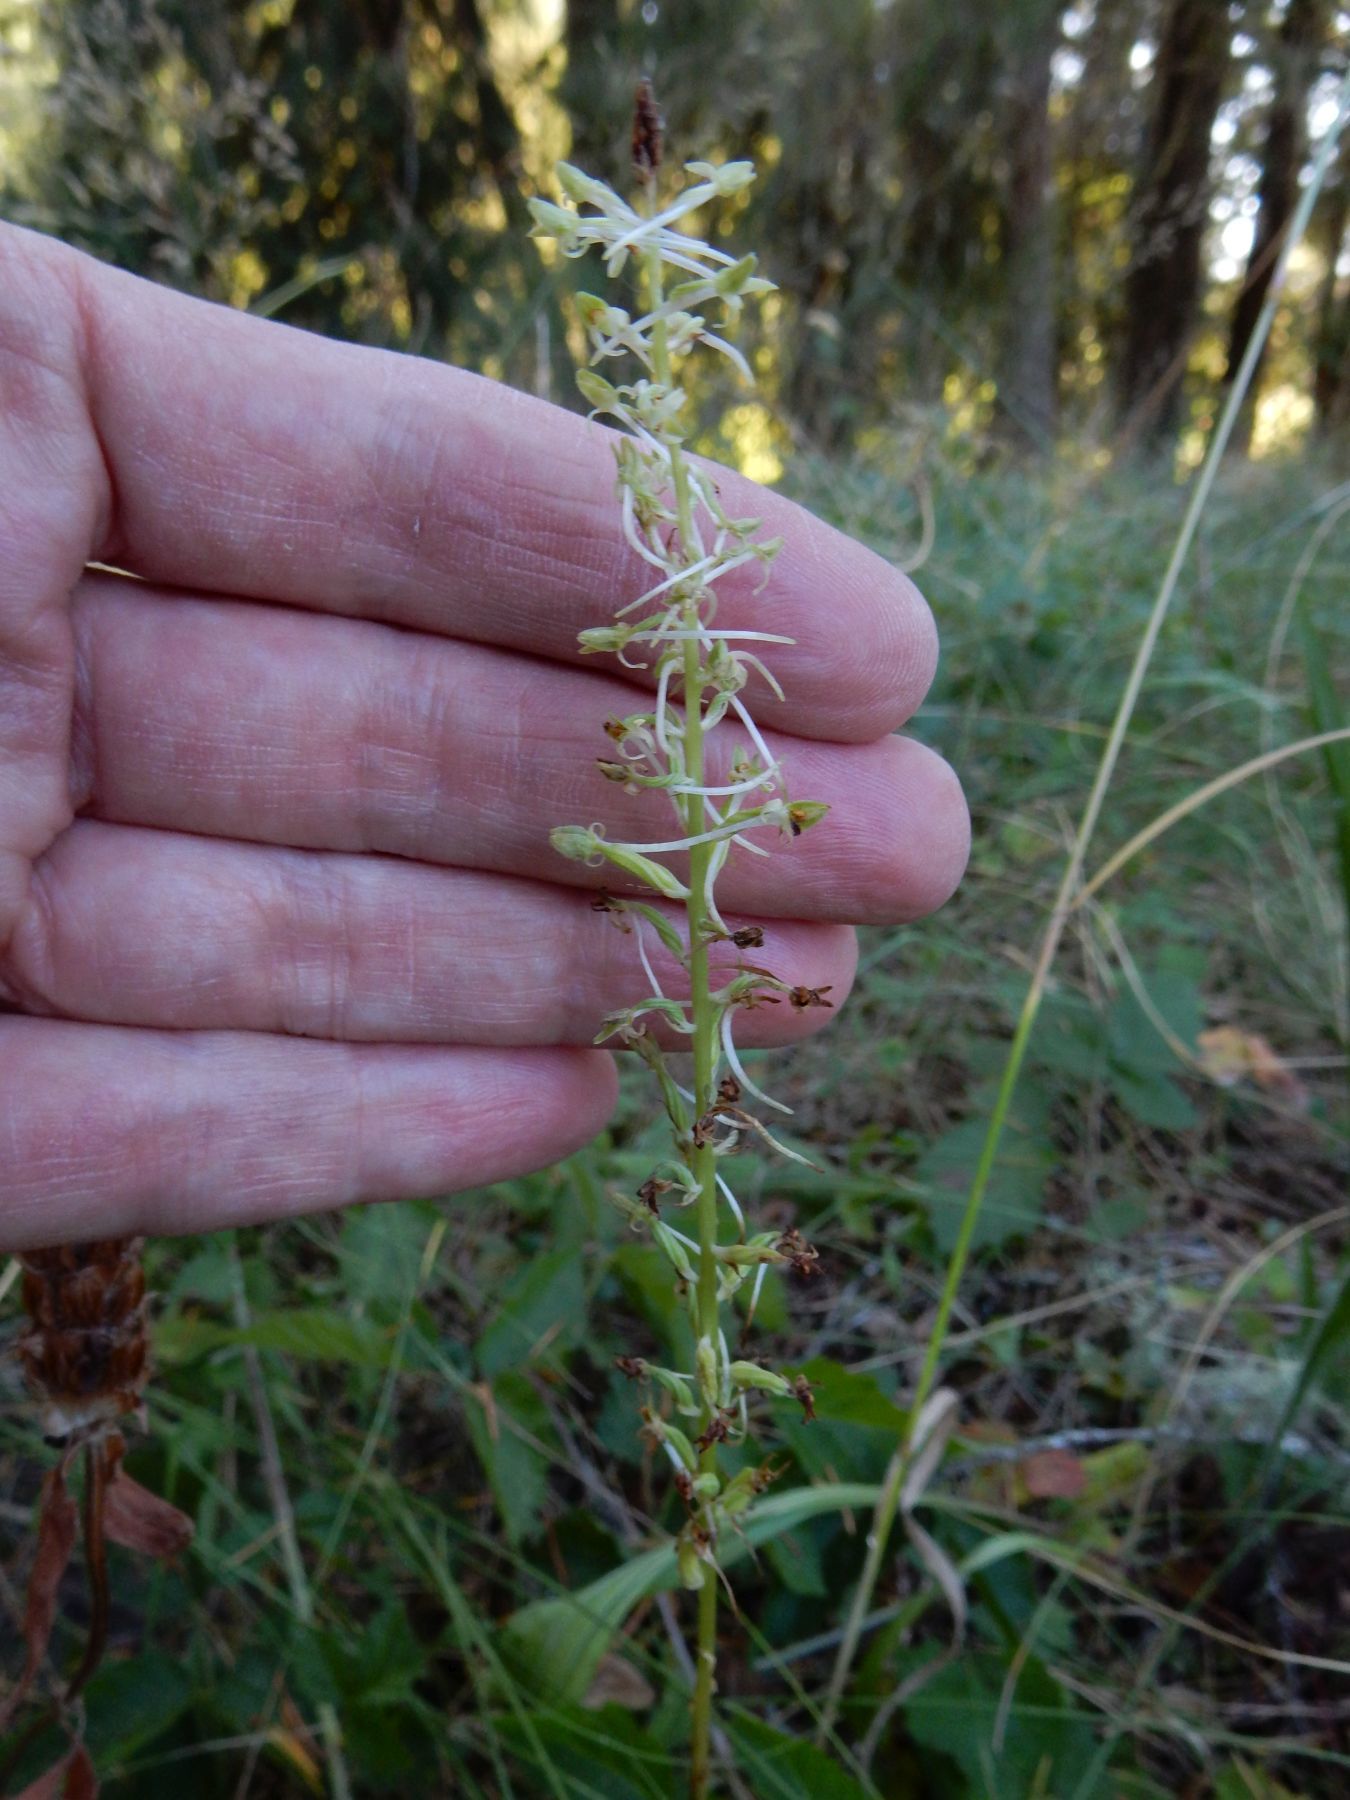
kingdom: Plantae
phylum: Tracheophyta
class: Liliopsida
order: Asparagales
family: Orchidaceae
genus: Platanthera
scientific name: Platanthera elongata
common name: Dense-flowered rein orchid
